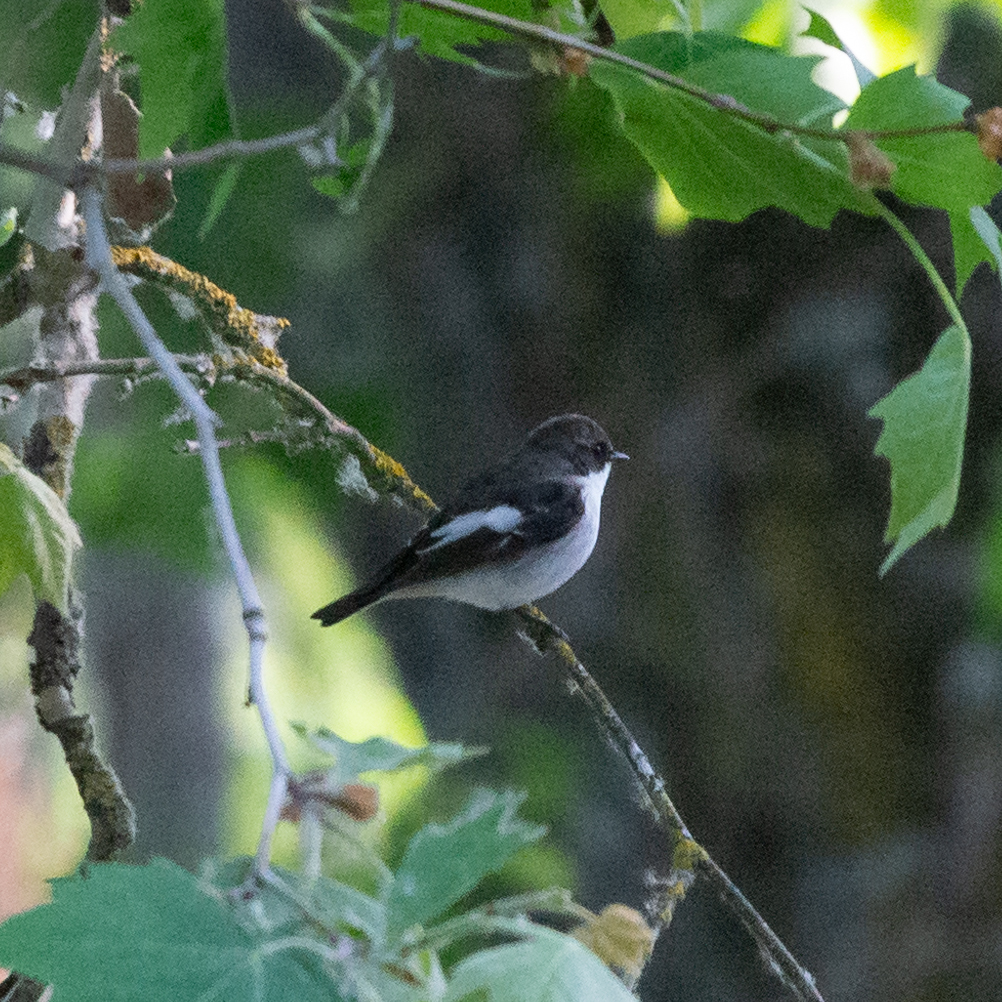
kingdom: Animalia
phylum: Chordata
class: Aves
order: Passeriformes
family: Muscicapidae
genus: Ficedula
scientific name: Ficedula hypoleuca
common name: European pied flycatcher
